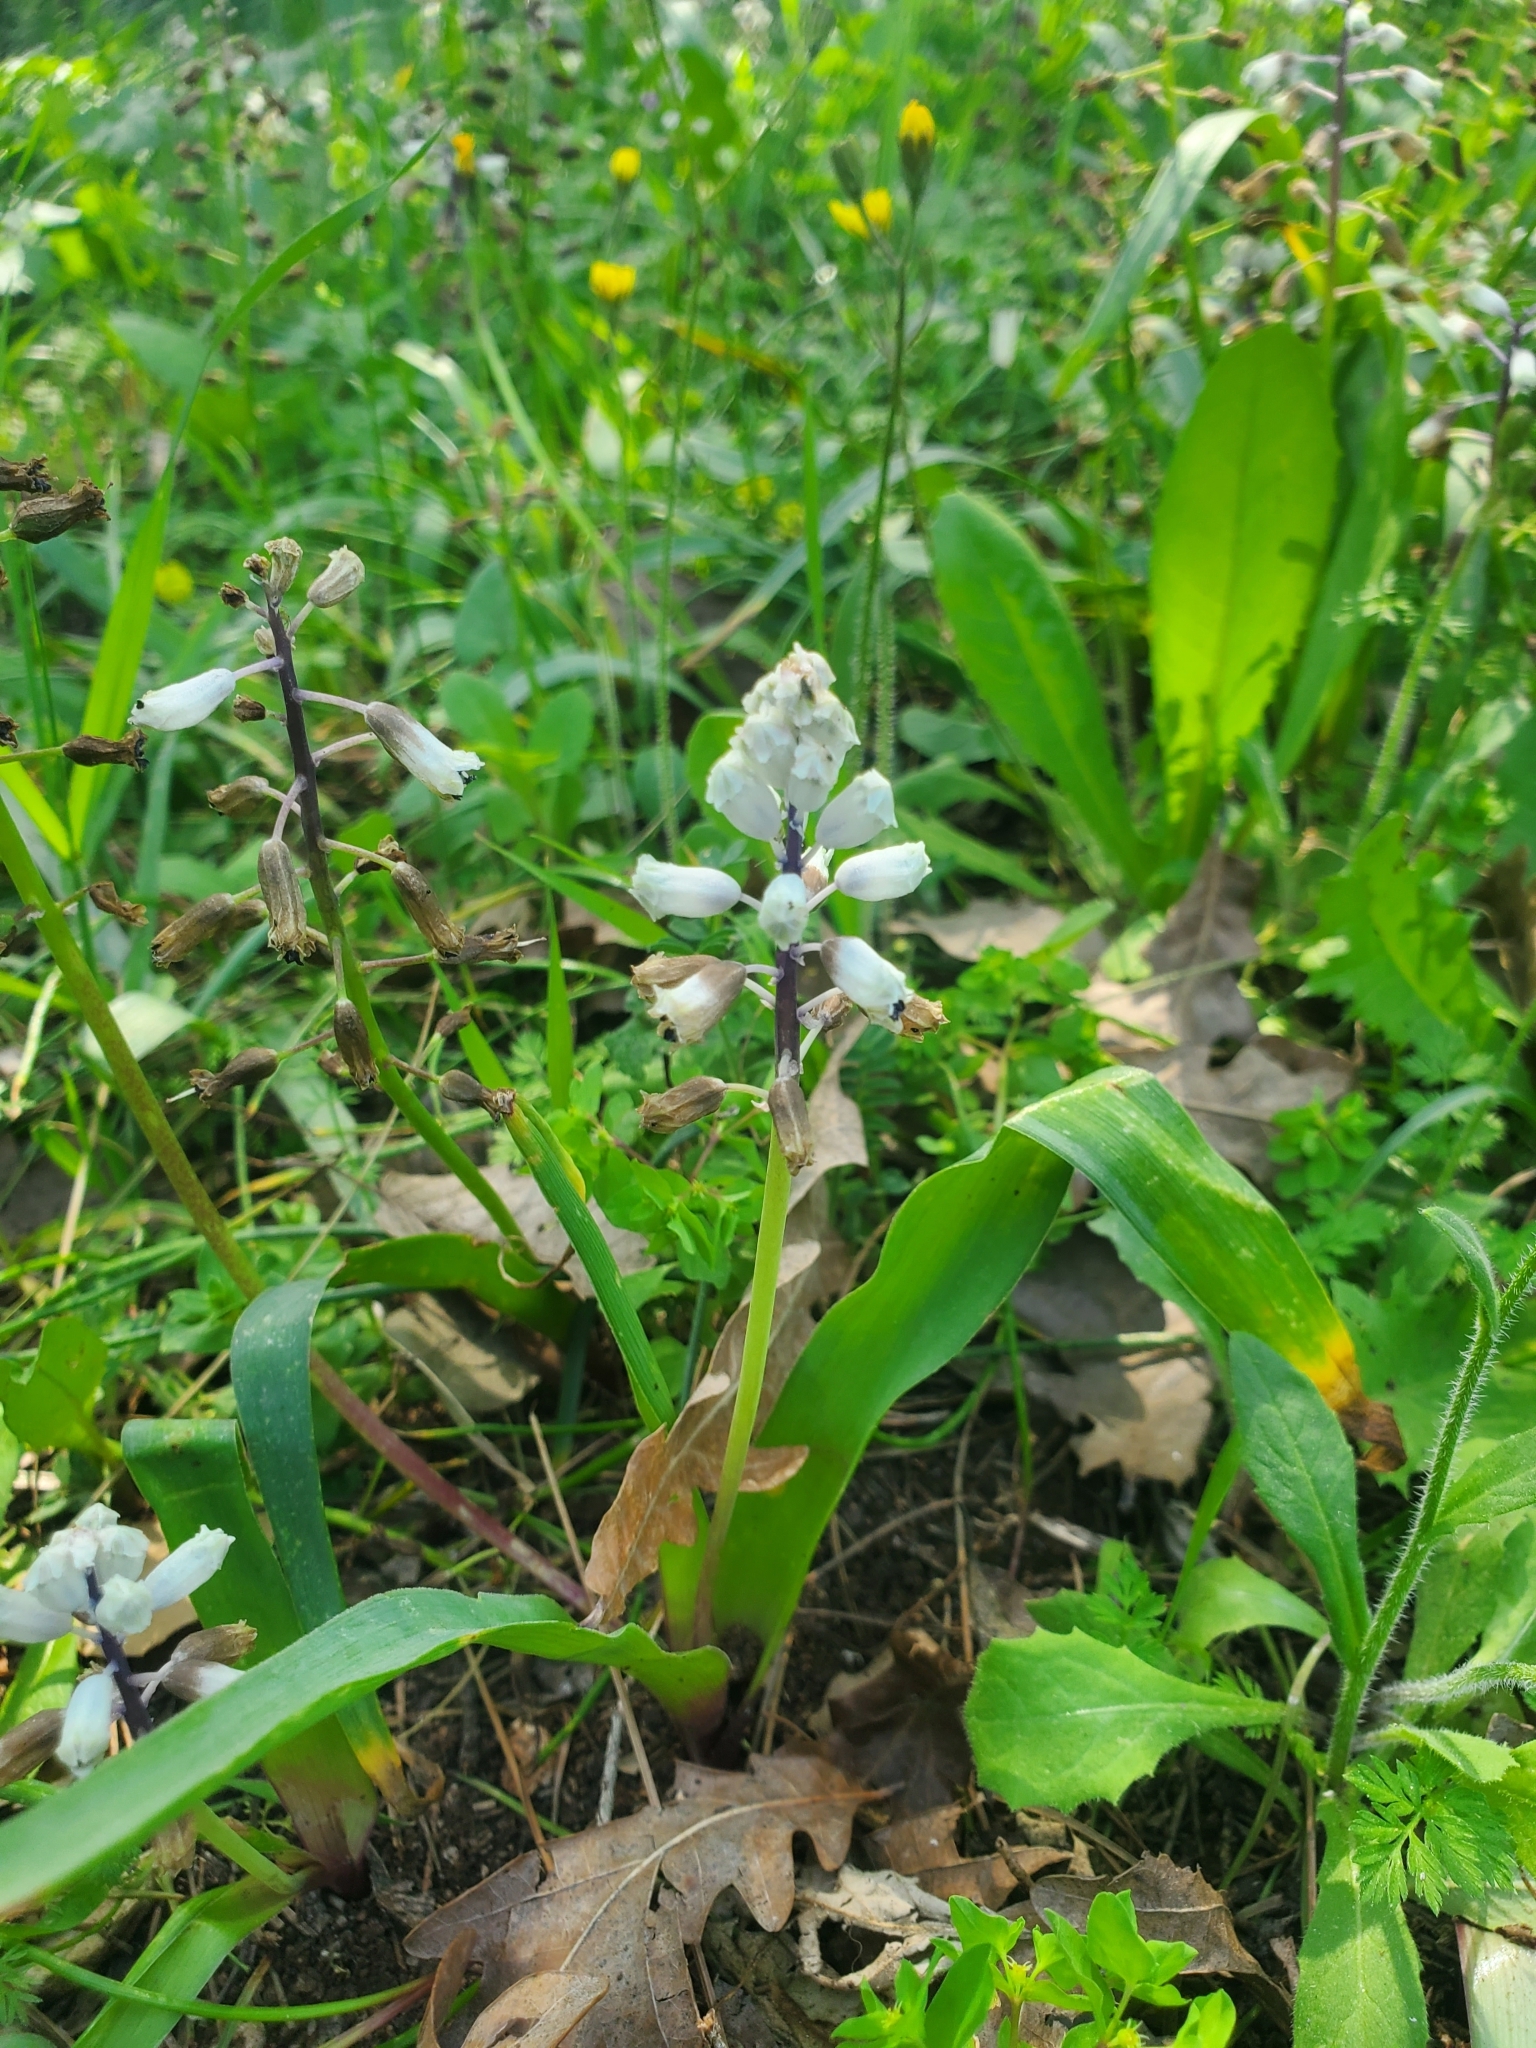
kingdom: Plantae
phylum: Tracheophyta
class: Liliopsida
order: Asparagales
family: Asparagaceae
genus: Bellevalia
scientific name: Bellevalia flexuosa
